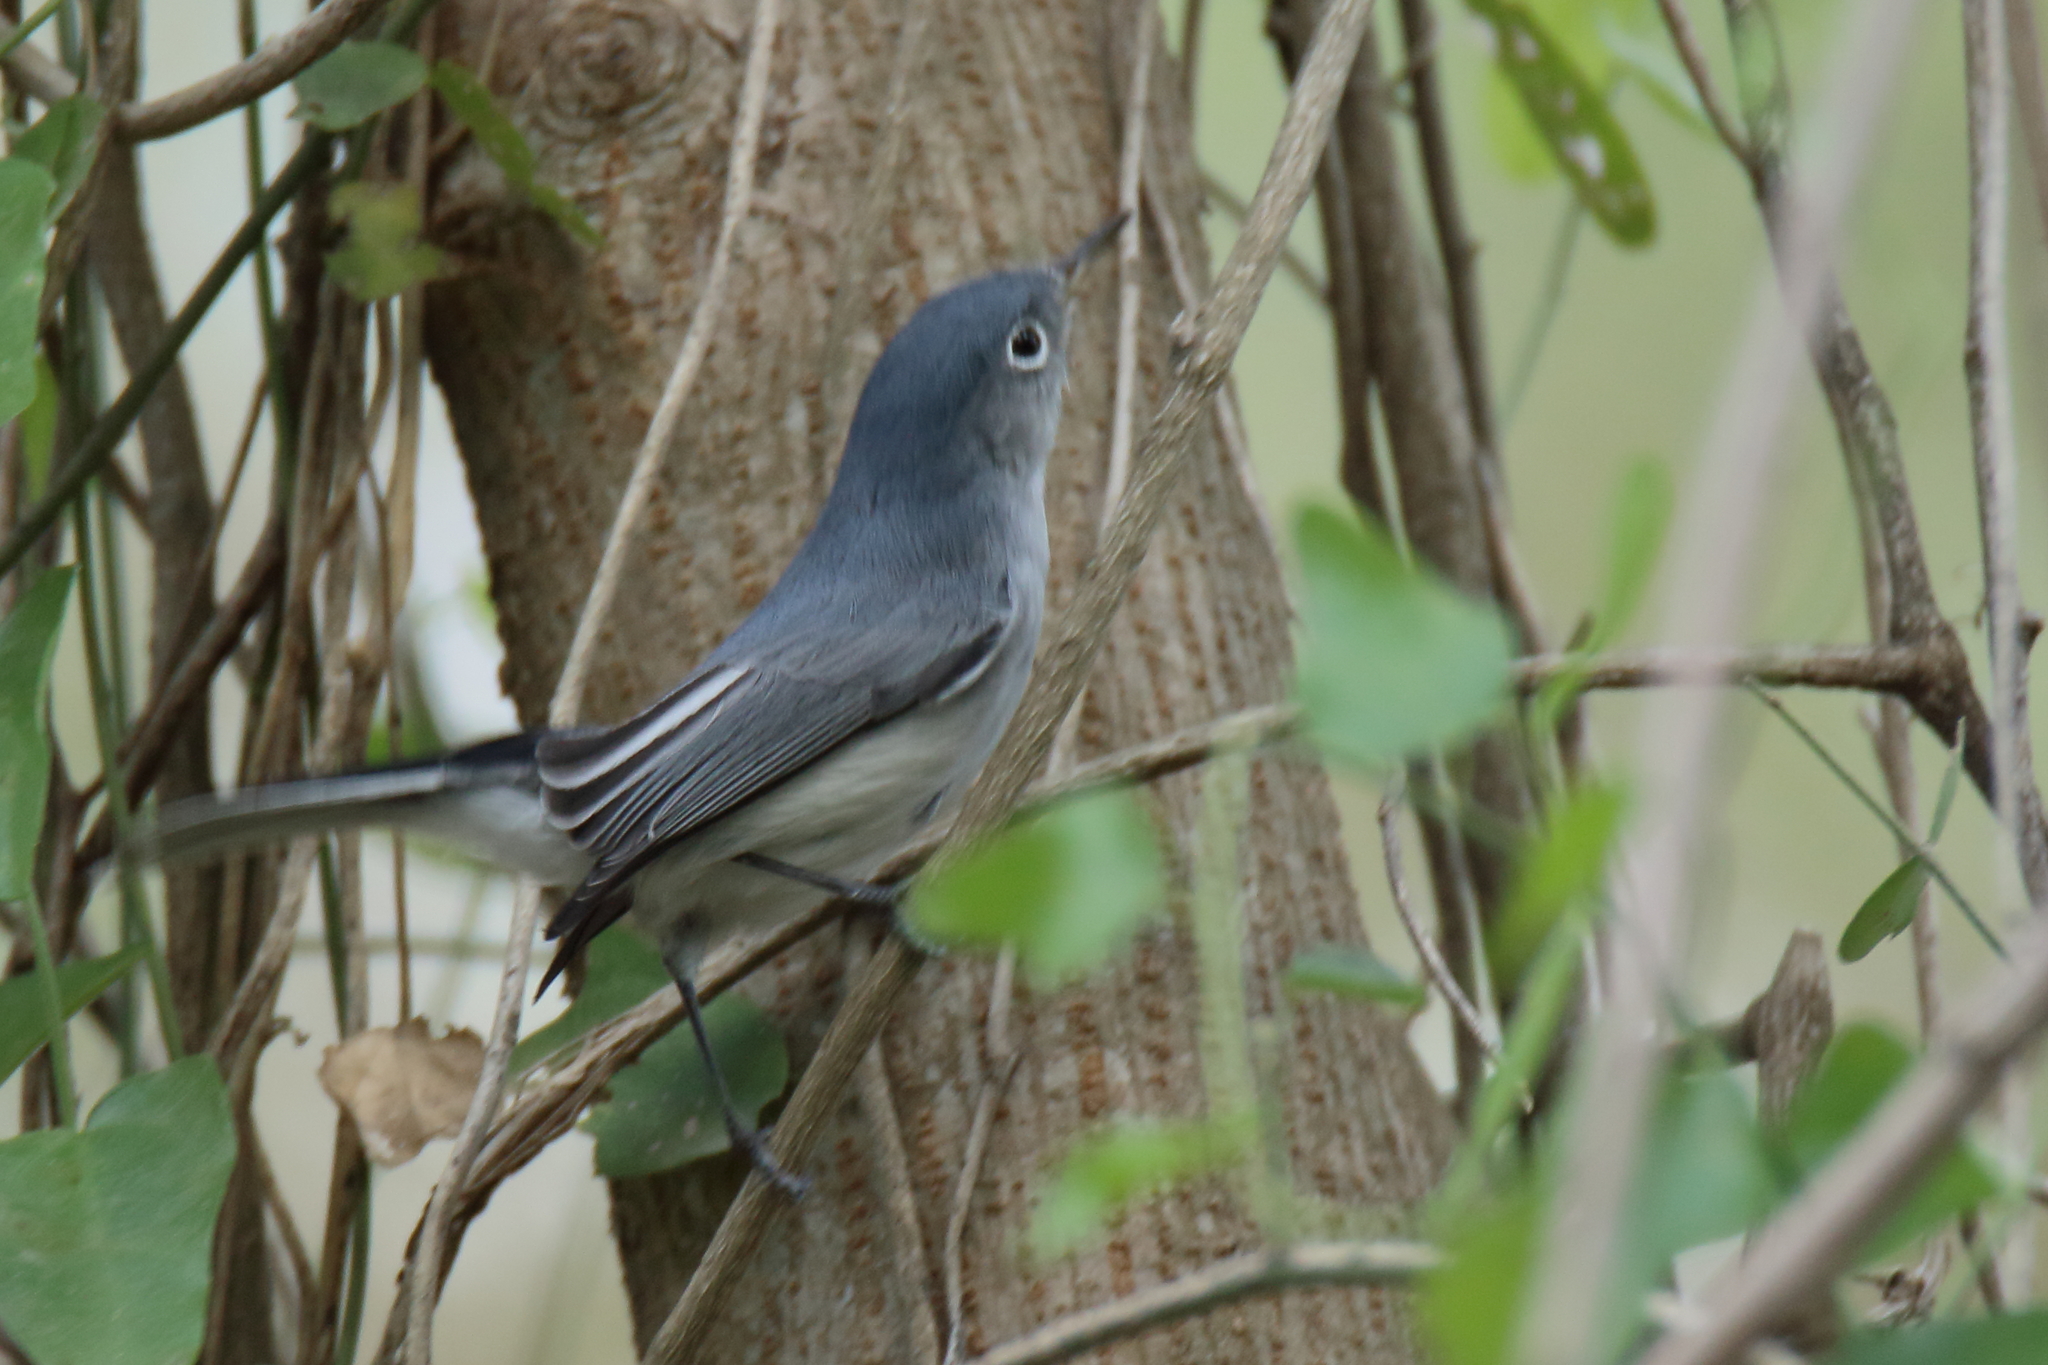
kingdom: Animalia
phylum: Chordata
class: Aves
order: Passeriformes
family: Polioptilidae
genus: Polioptila
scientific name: Polioptila caerulea
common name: Blue-gray gnatcatcher
